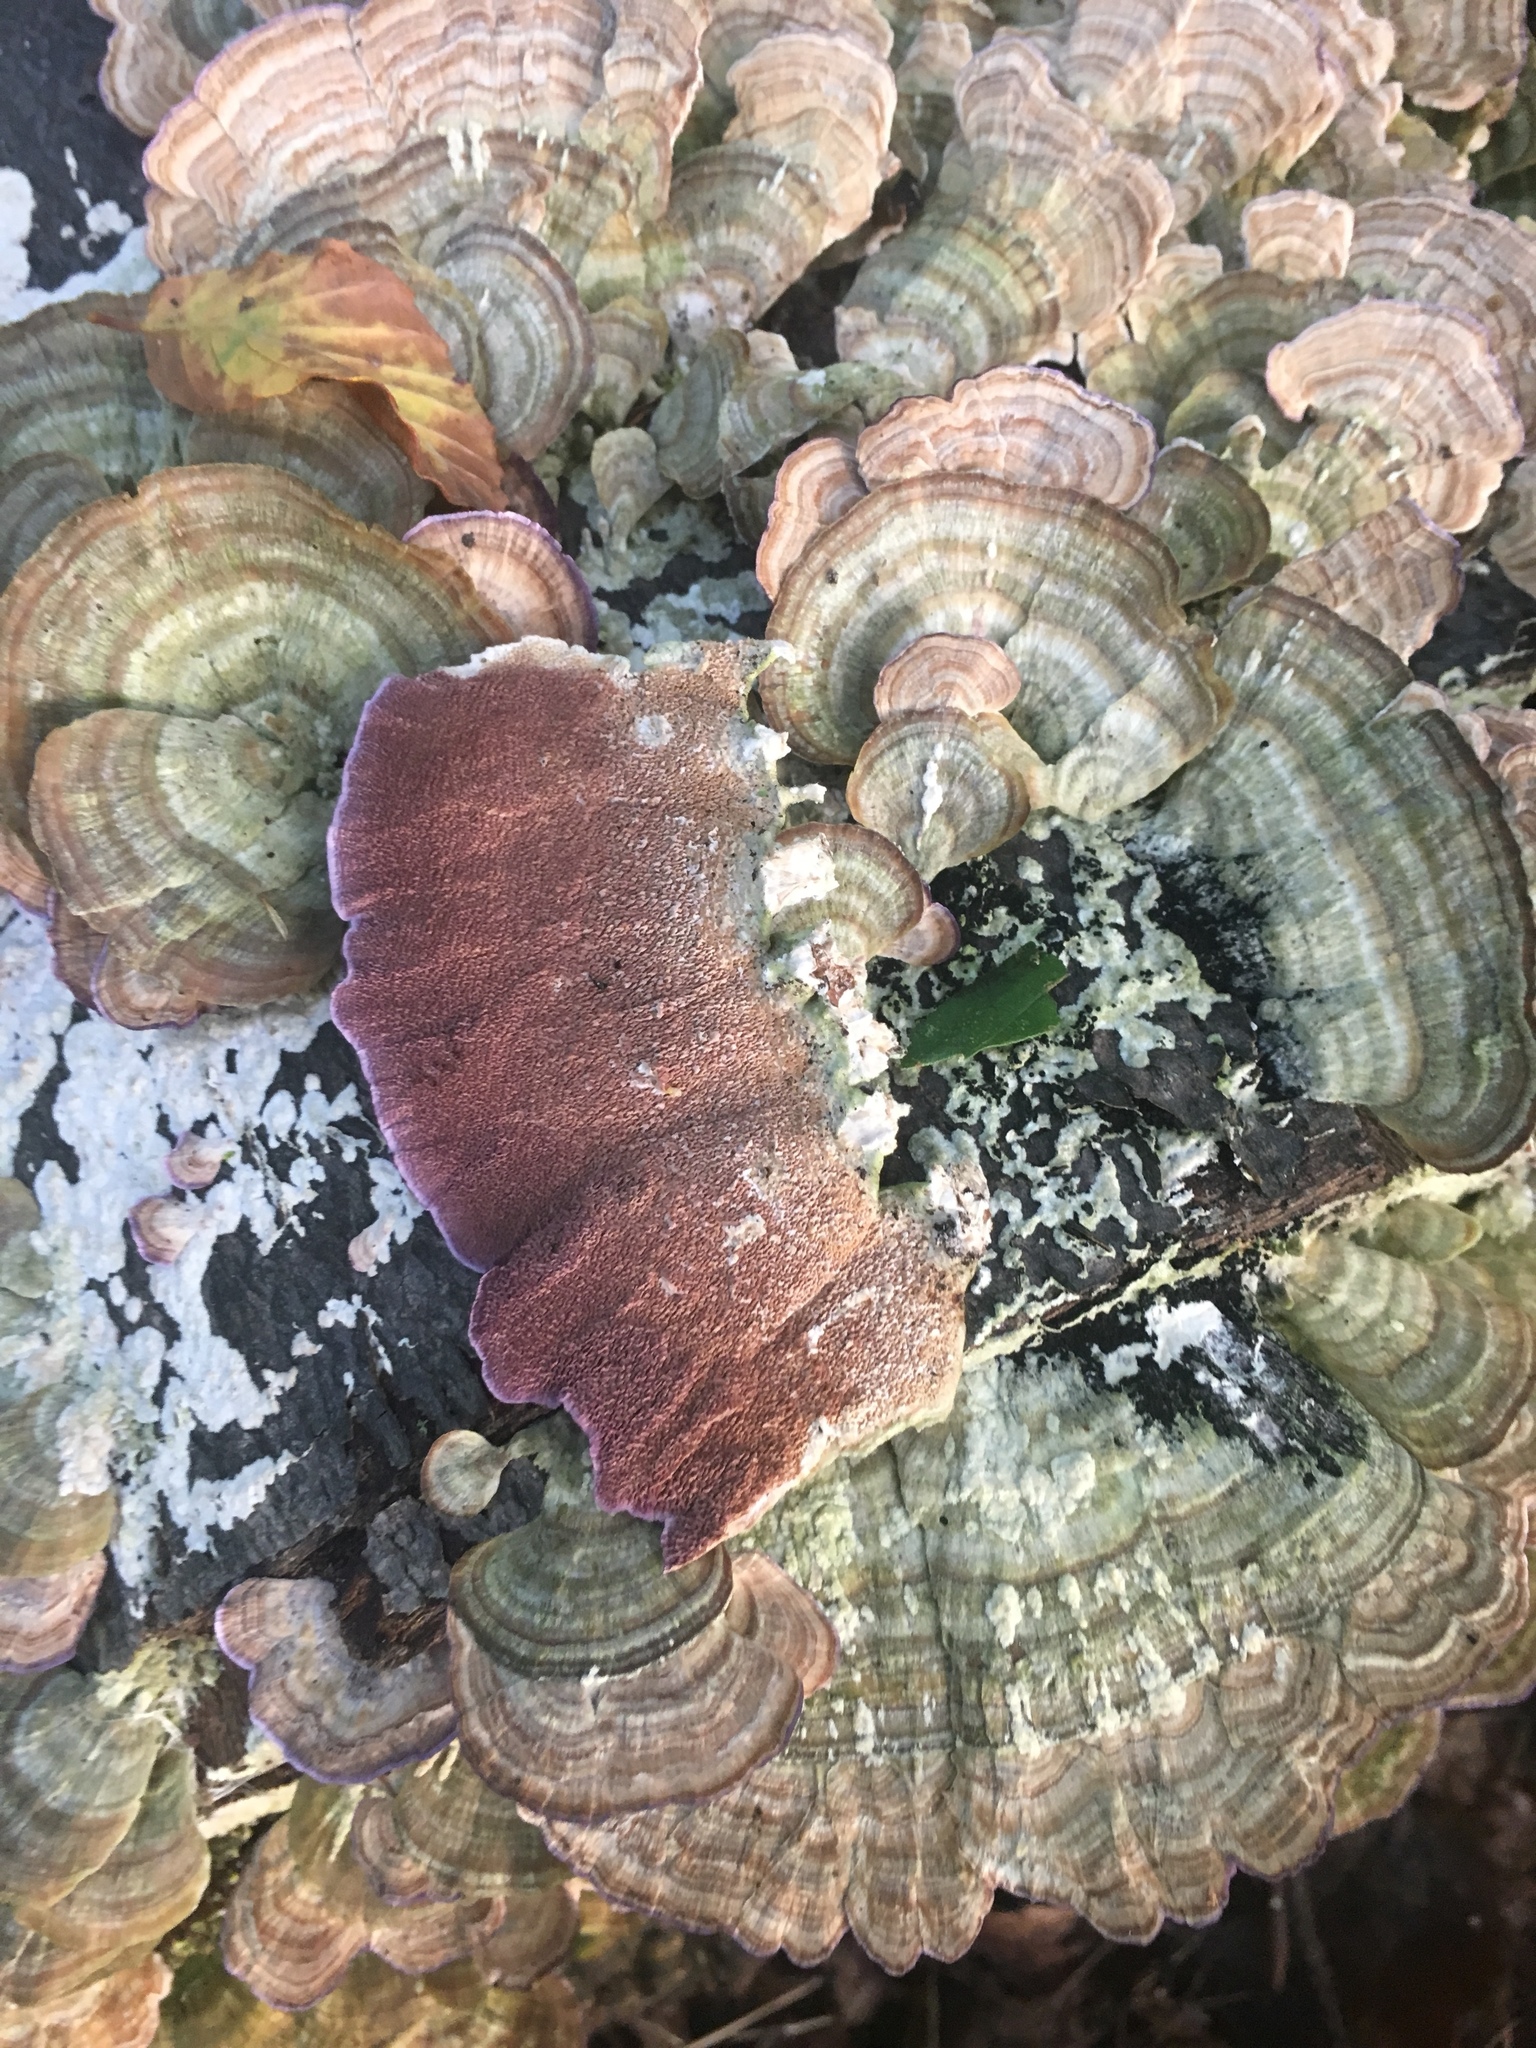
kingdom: Fungi
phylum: Basidiomycota
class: Agaricomycetes
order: Hymenochaetales
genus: Trichaptum
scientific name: Trichaptum biforme
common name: Violet-toothed polypore
